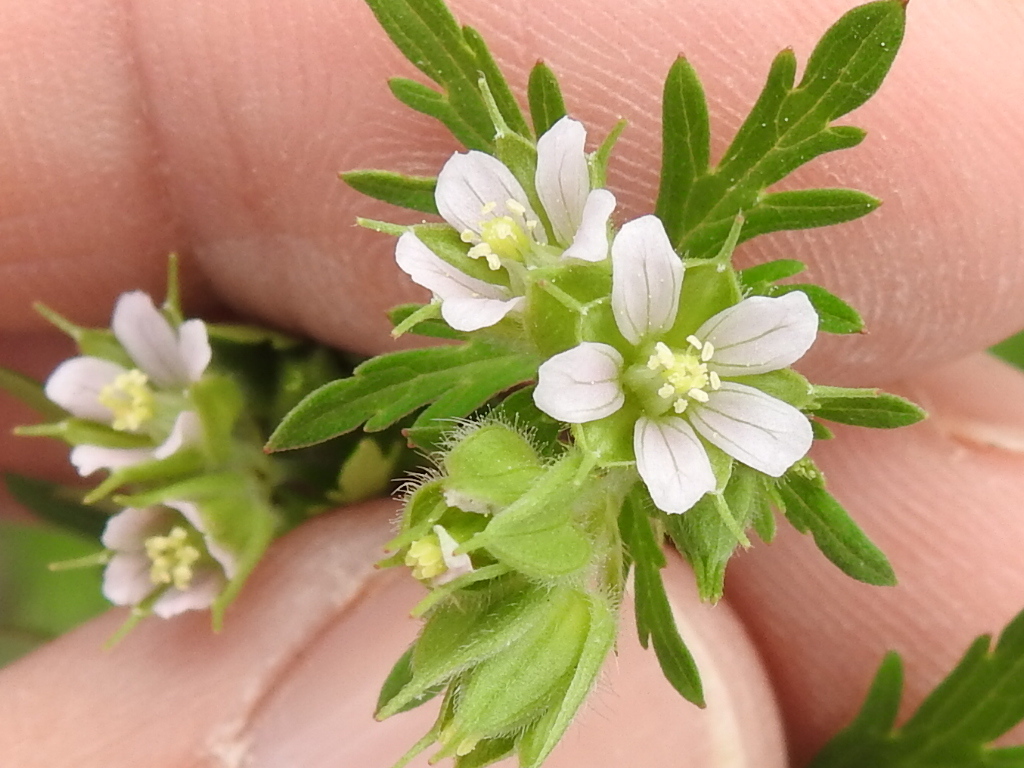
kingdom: Plantae
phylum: Tracheophyta
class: Magnoliopsida
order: Geraniales
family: Geraniaceae
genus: Geranium
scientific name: Geranium carolinianum
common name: Carolina crane's-bill
